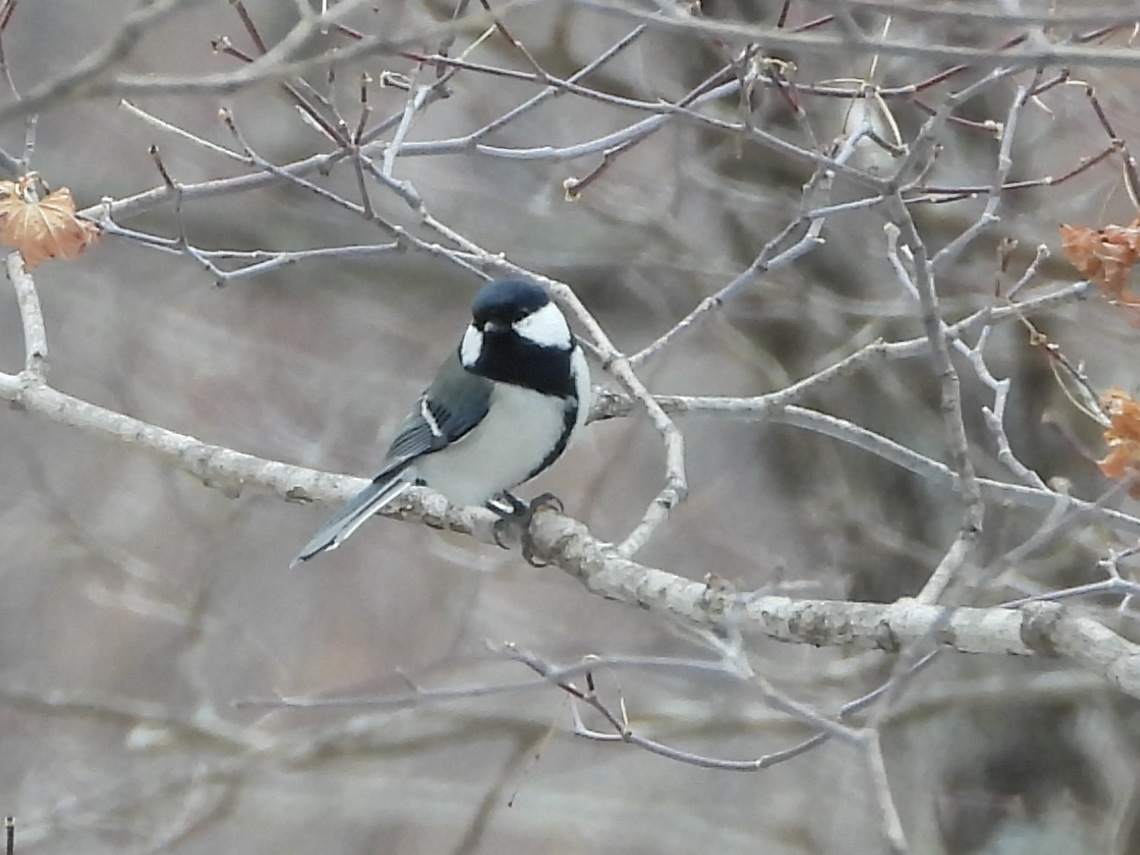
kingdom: Animalia
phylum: Chordata
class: Aves
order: Passeriformes
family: Paridae
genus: Parus
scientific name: Parus minor
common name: Japanese tit
